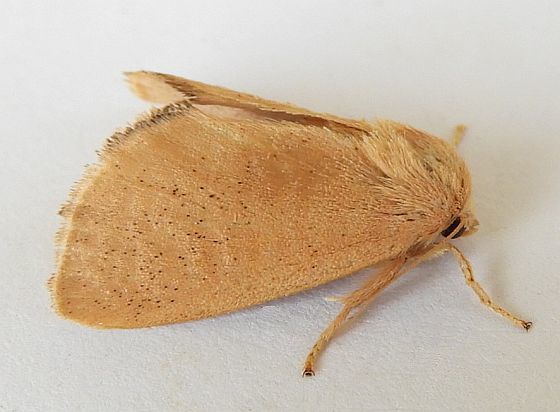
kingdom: Animalia
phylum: Arthropoda
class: Insecta
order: Lepidoptera
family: Limacodidae
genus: Isa
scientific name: Isa schaefferana
